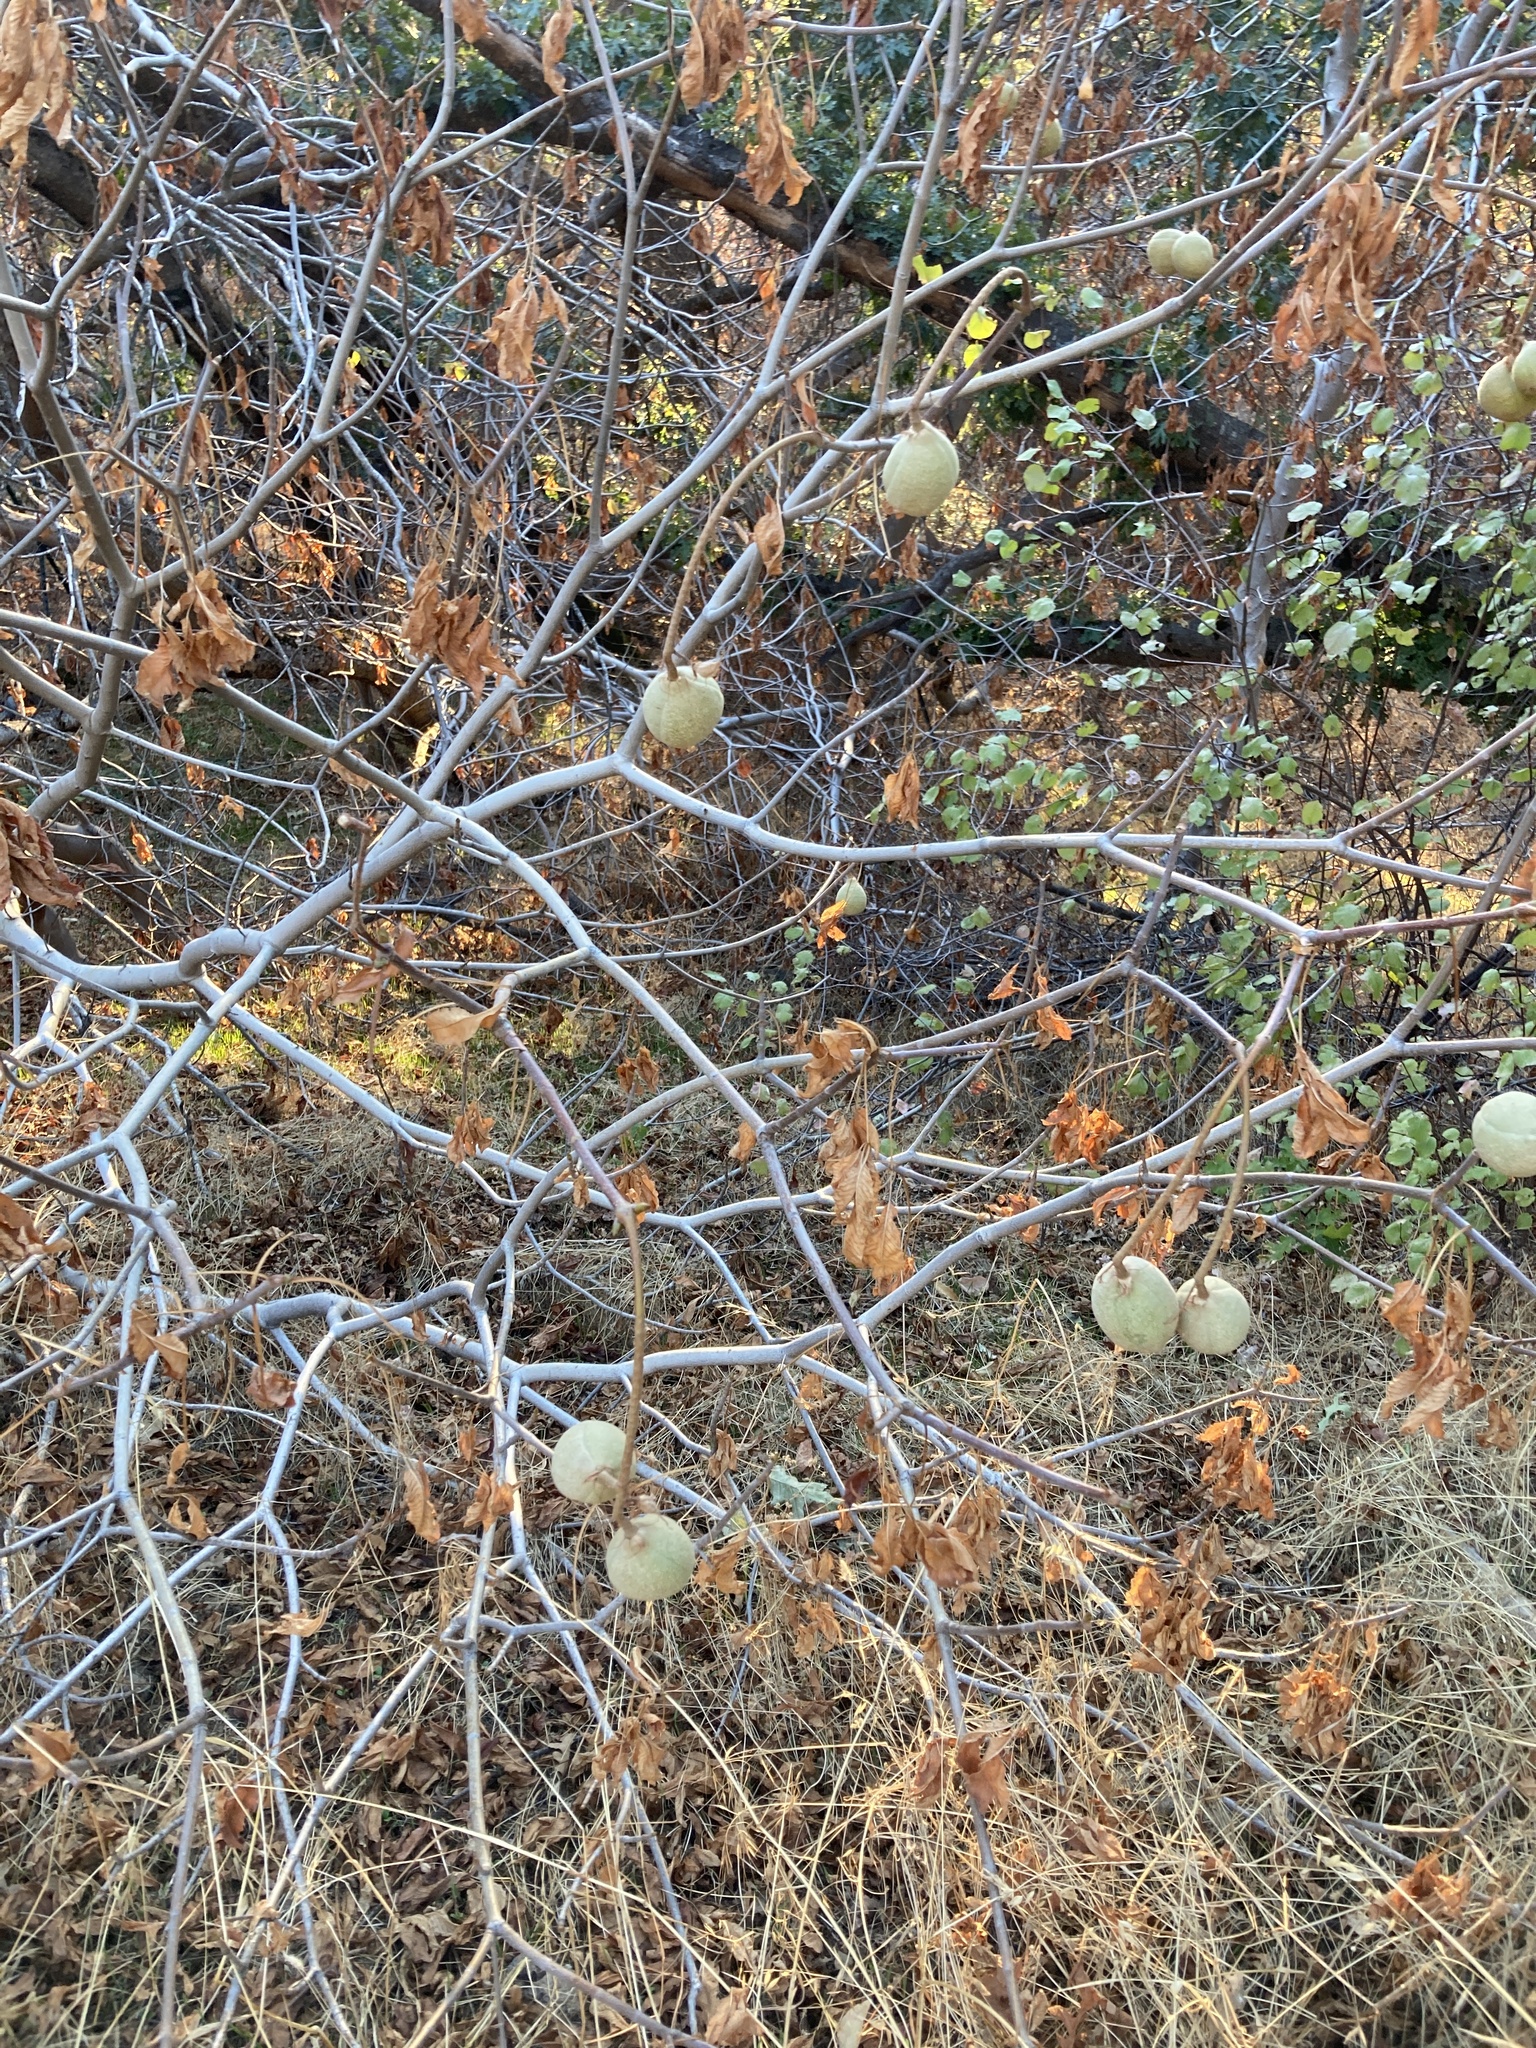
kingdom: Plantae
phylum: Tracheophyta
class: Magnoliopsida
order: Sapindales
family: Sapindaceae
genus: Aesculus
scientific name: Aesculus californica
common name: California buckeye
